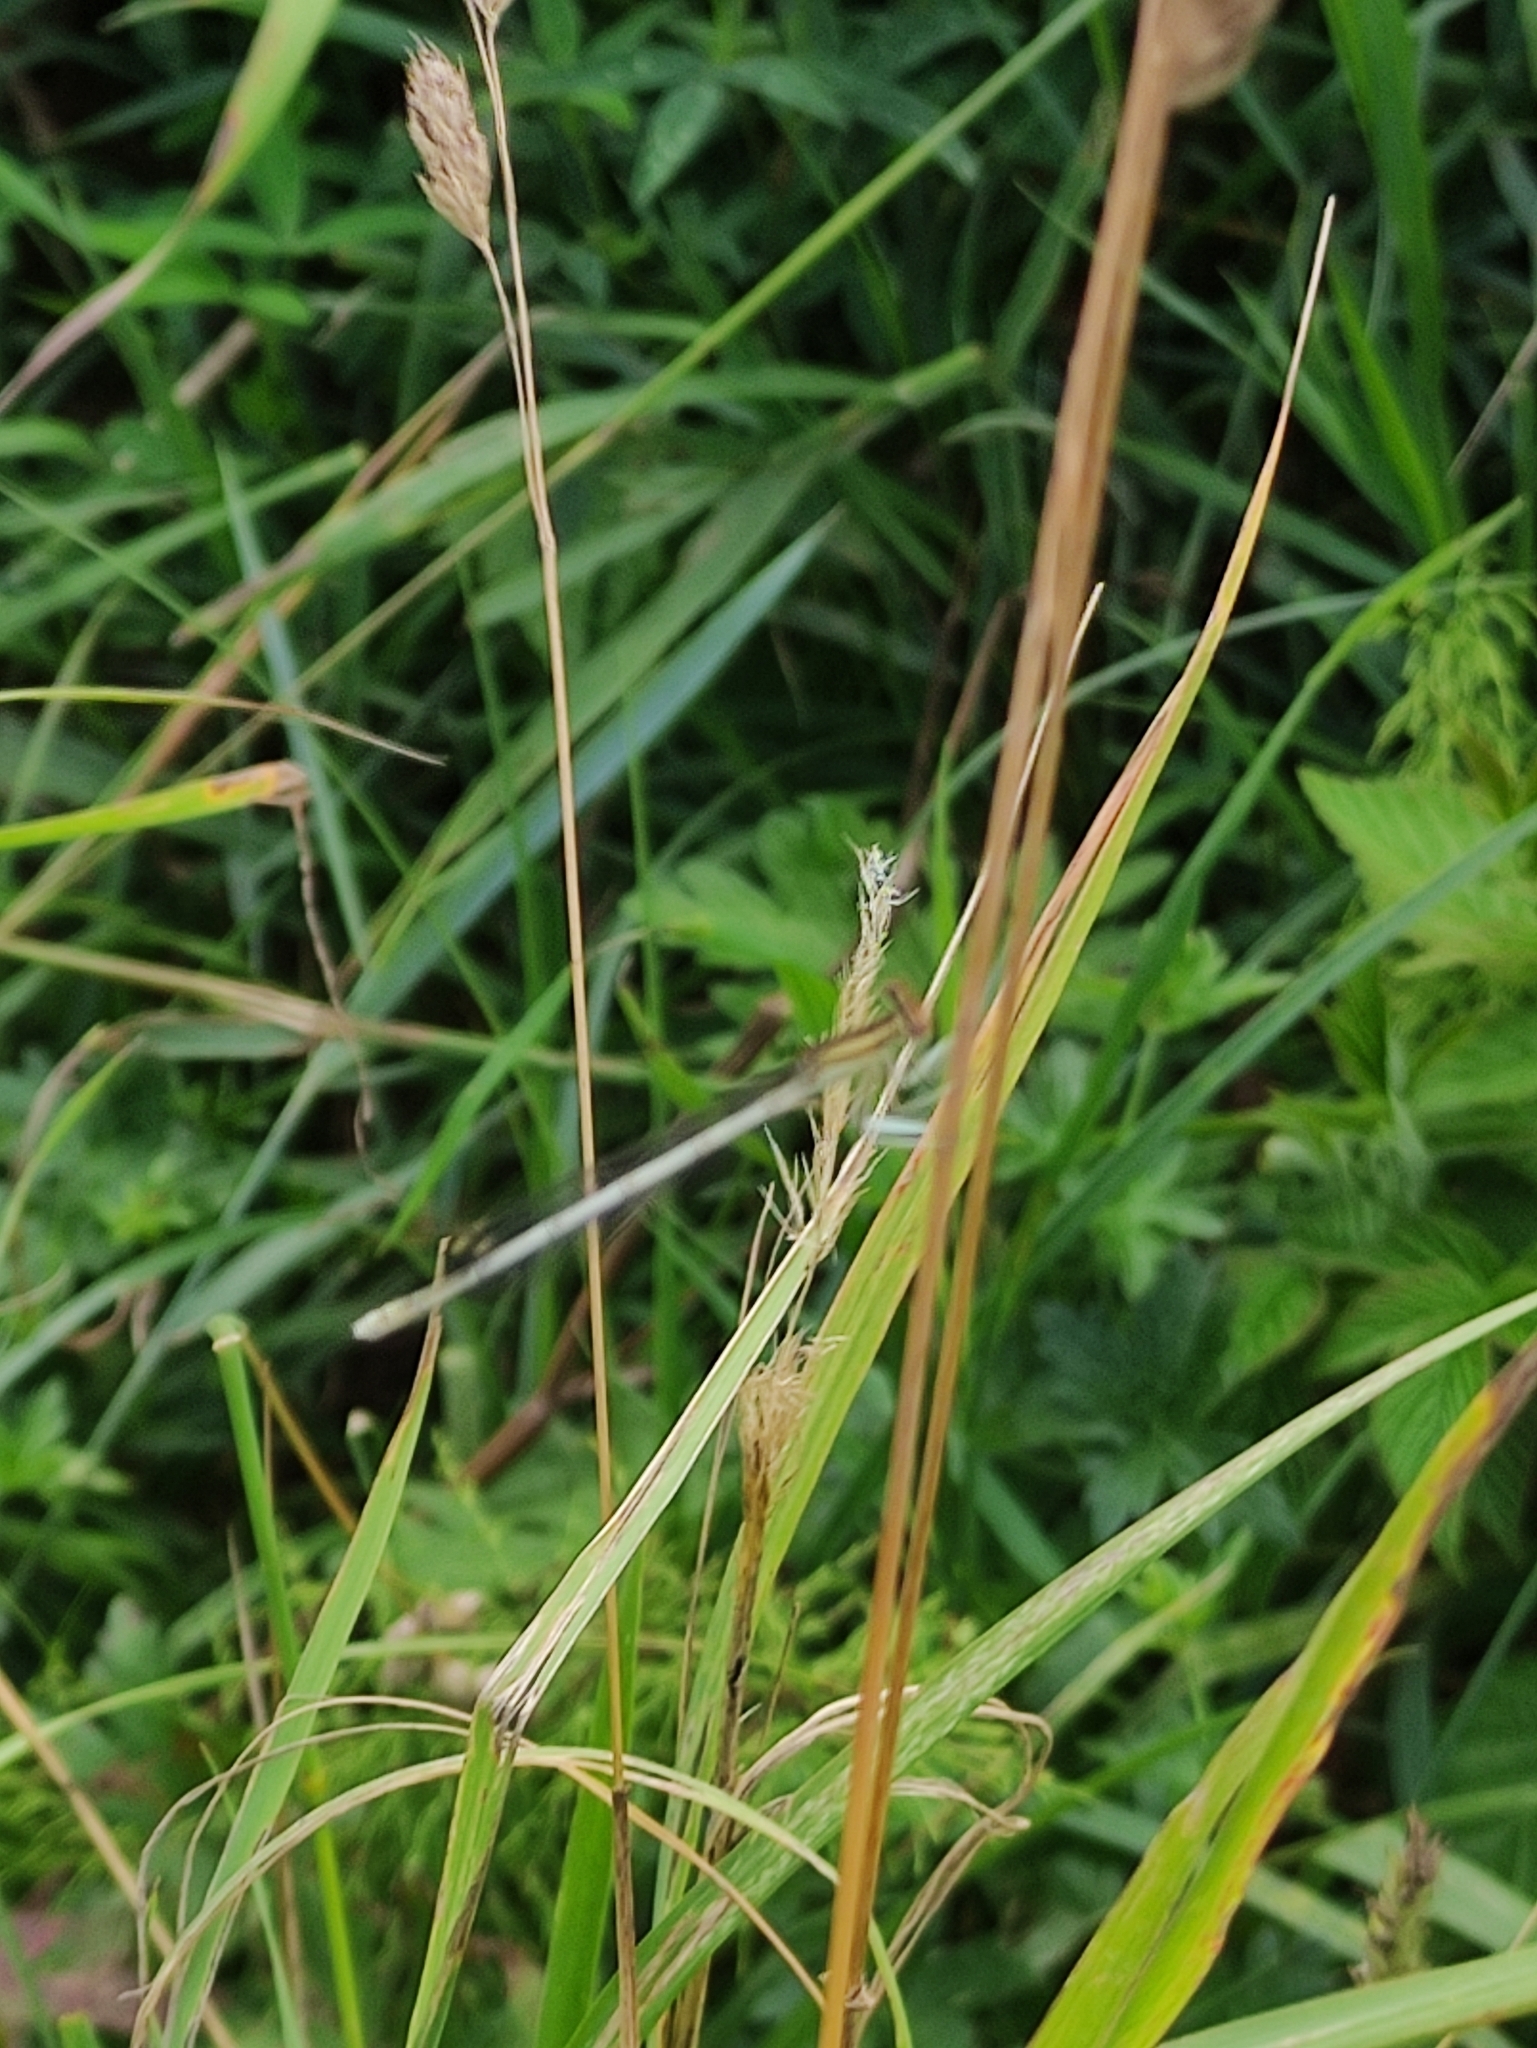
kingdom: Animalia
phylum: Arthropoda
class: Insecta
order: Odonata
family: Platycnemididae
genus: Platycnemis
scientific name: Platycnemis pennipes
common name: White-legged damselfly
